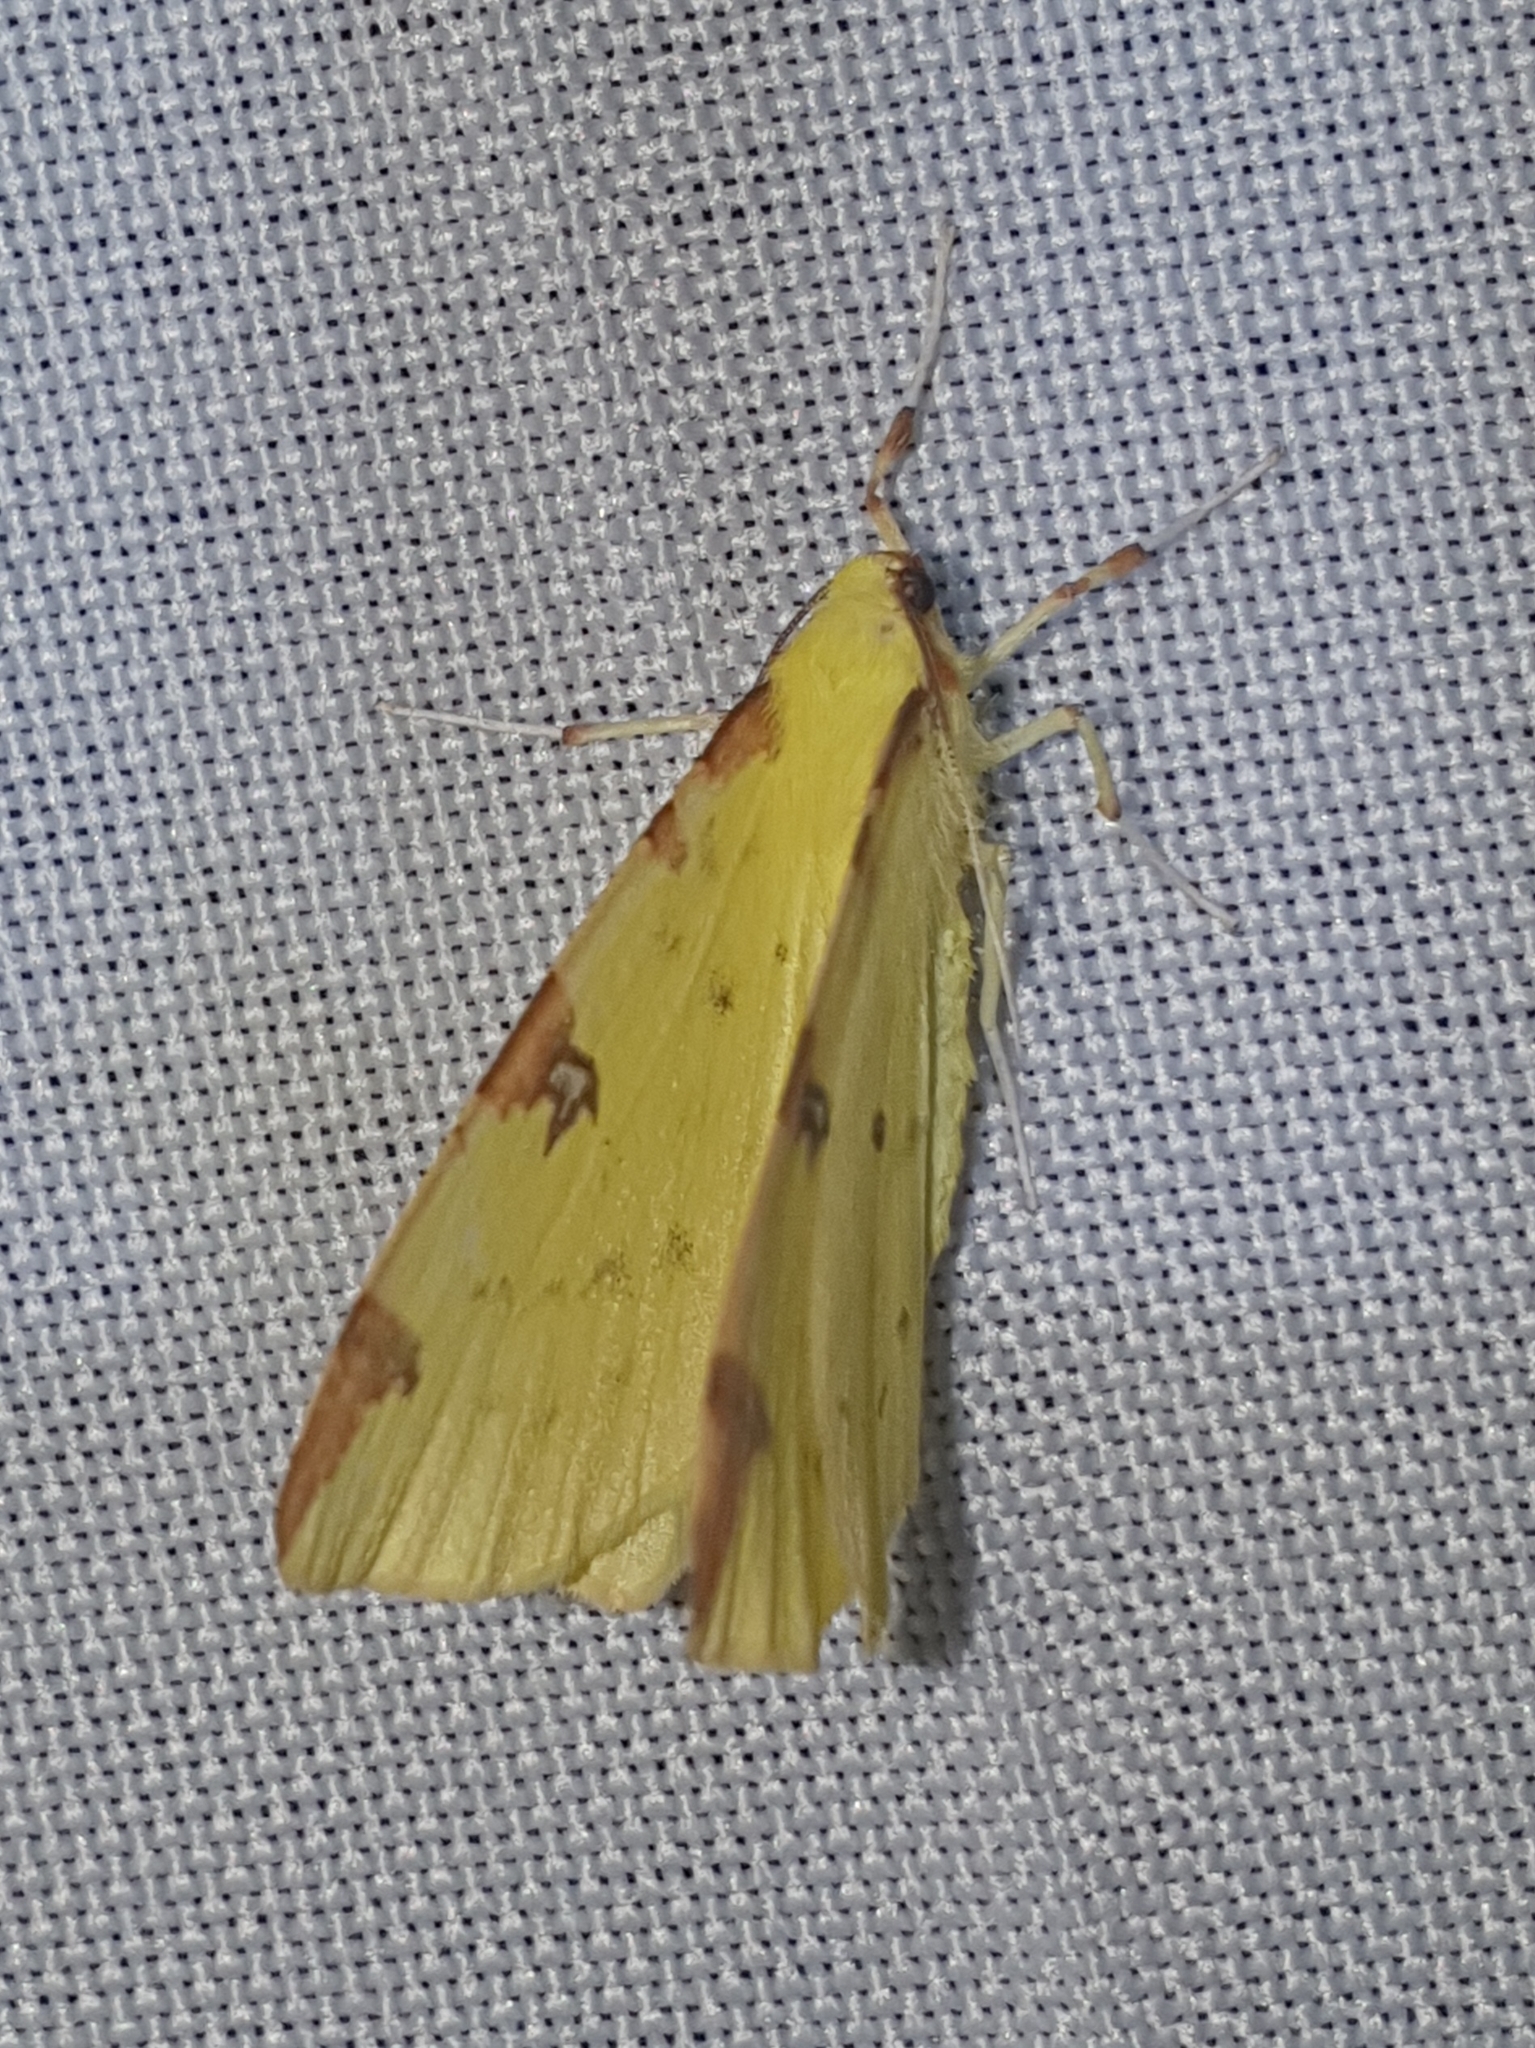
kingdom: Animalia
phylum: Arthropoda
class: Insecta
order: Lepidoptera
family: Geometridae
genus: Opisthograptis
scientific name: Opisthograptis luteolata
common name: Brimstone moth
